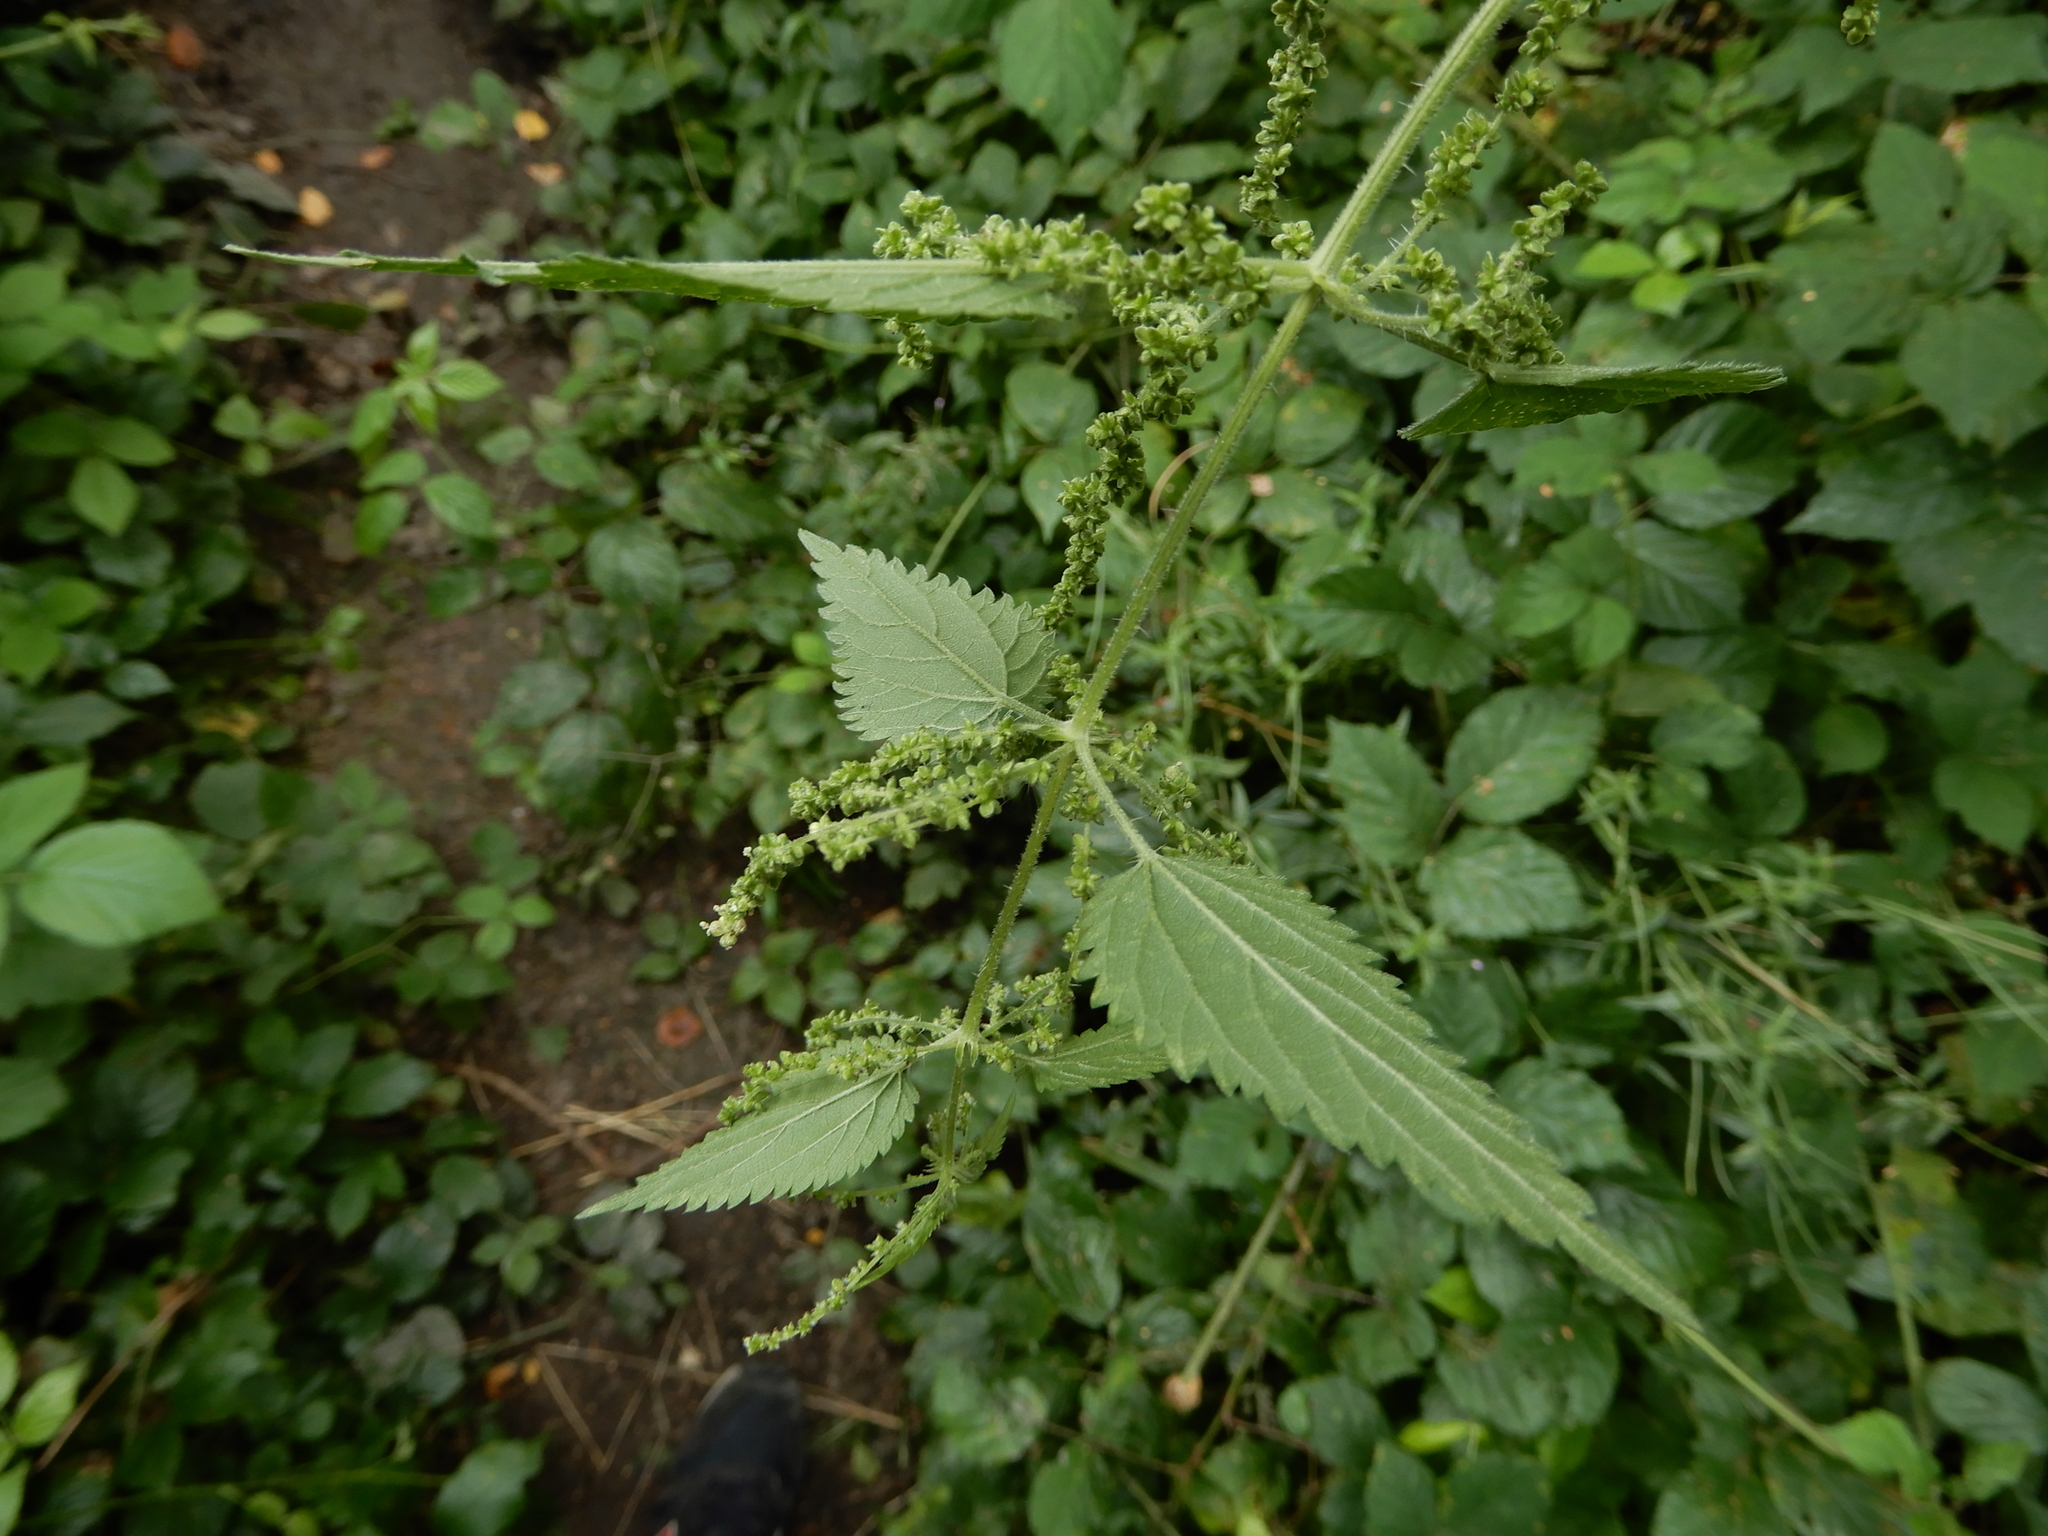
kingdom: Plantae
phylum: Tracheophyta
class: Magnoliopsida
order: Rosales
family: Urticaceae
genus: Urtica
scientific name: Urtica dioica
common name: Common nettle
